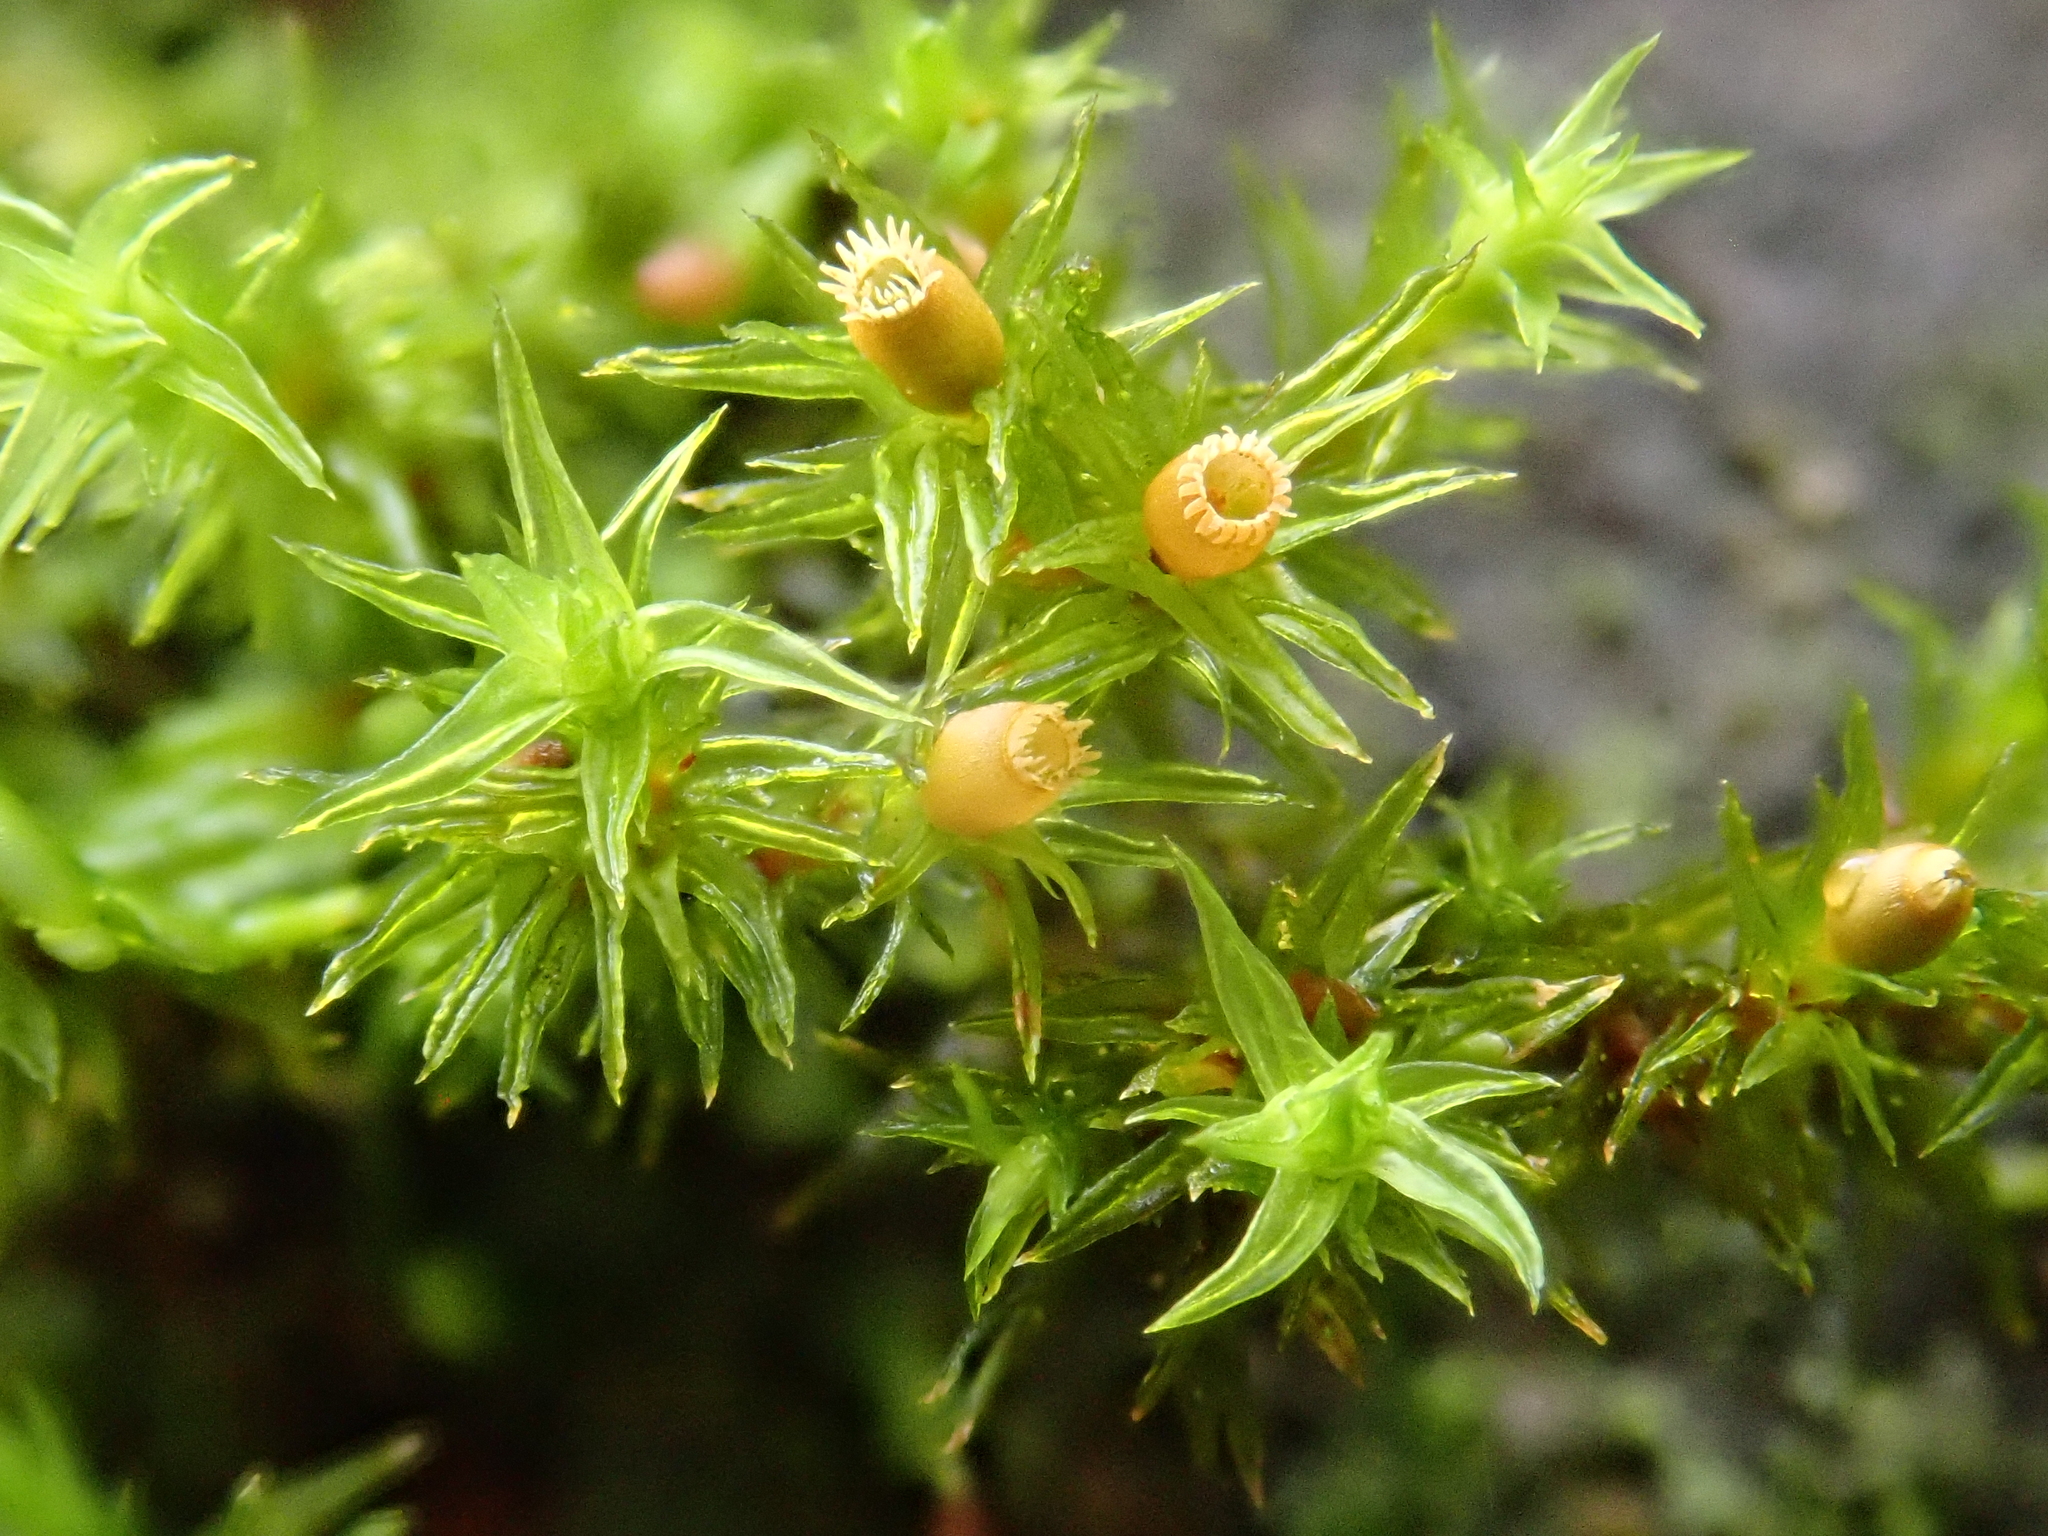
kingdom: Plantae
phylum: Bryophyta
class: Bryopsida
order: Orthotrichales
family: Orthotrichaceae
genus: Lewinskya
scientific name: Lewinskya striata
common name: Shaw's bristle-moss
